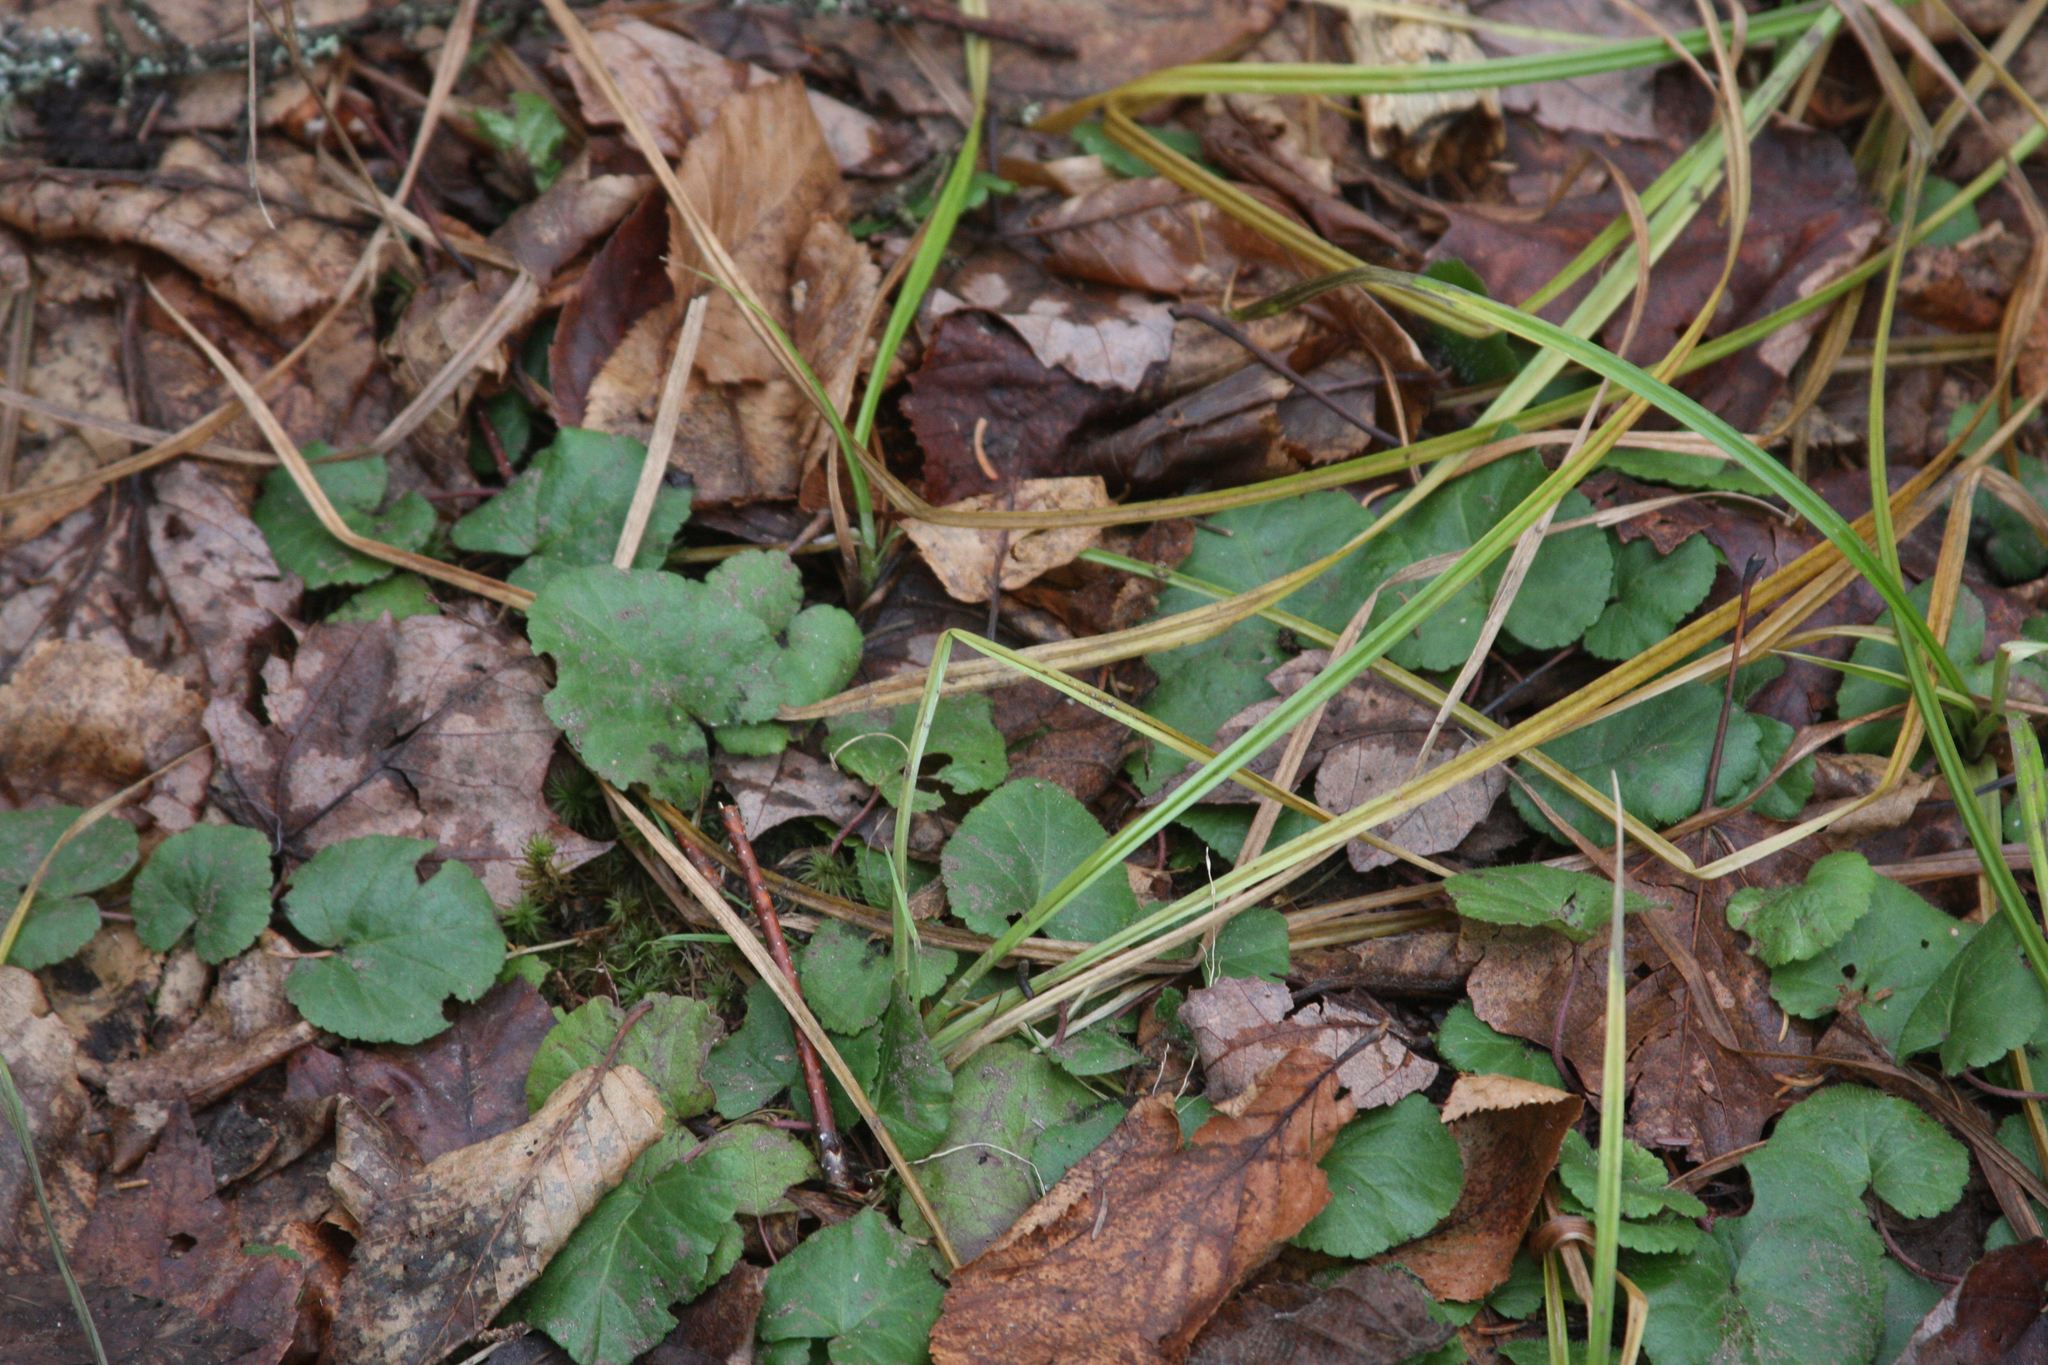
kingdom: Plantae
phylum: Tracheophyta
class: Magnoliopsida
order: Rosales
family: Rosaceae
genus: Dalibarda
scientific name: Dalibarda repens
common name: Dewdrop
